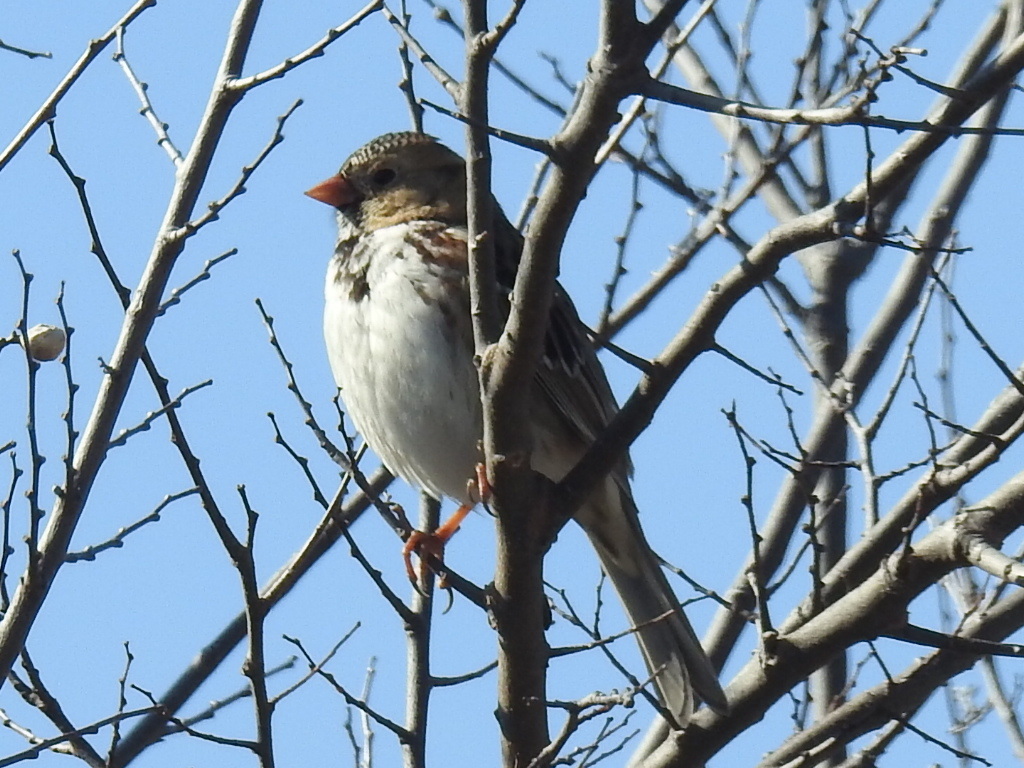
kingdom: Animalia
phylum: Chordata
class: Aves
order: Passeriformes
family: Passerellidae
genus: Zonotrichia
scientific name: Zonotrichia querula
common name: Harris's sparrow
